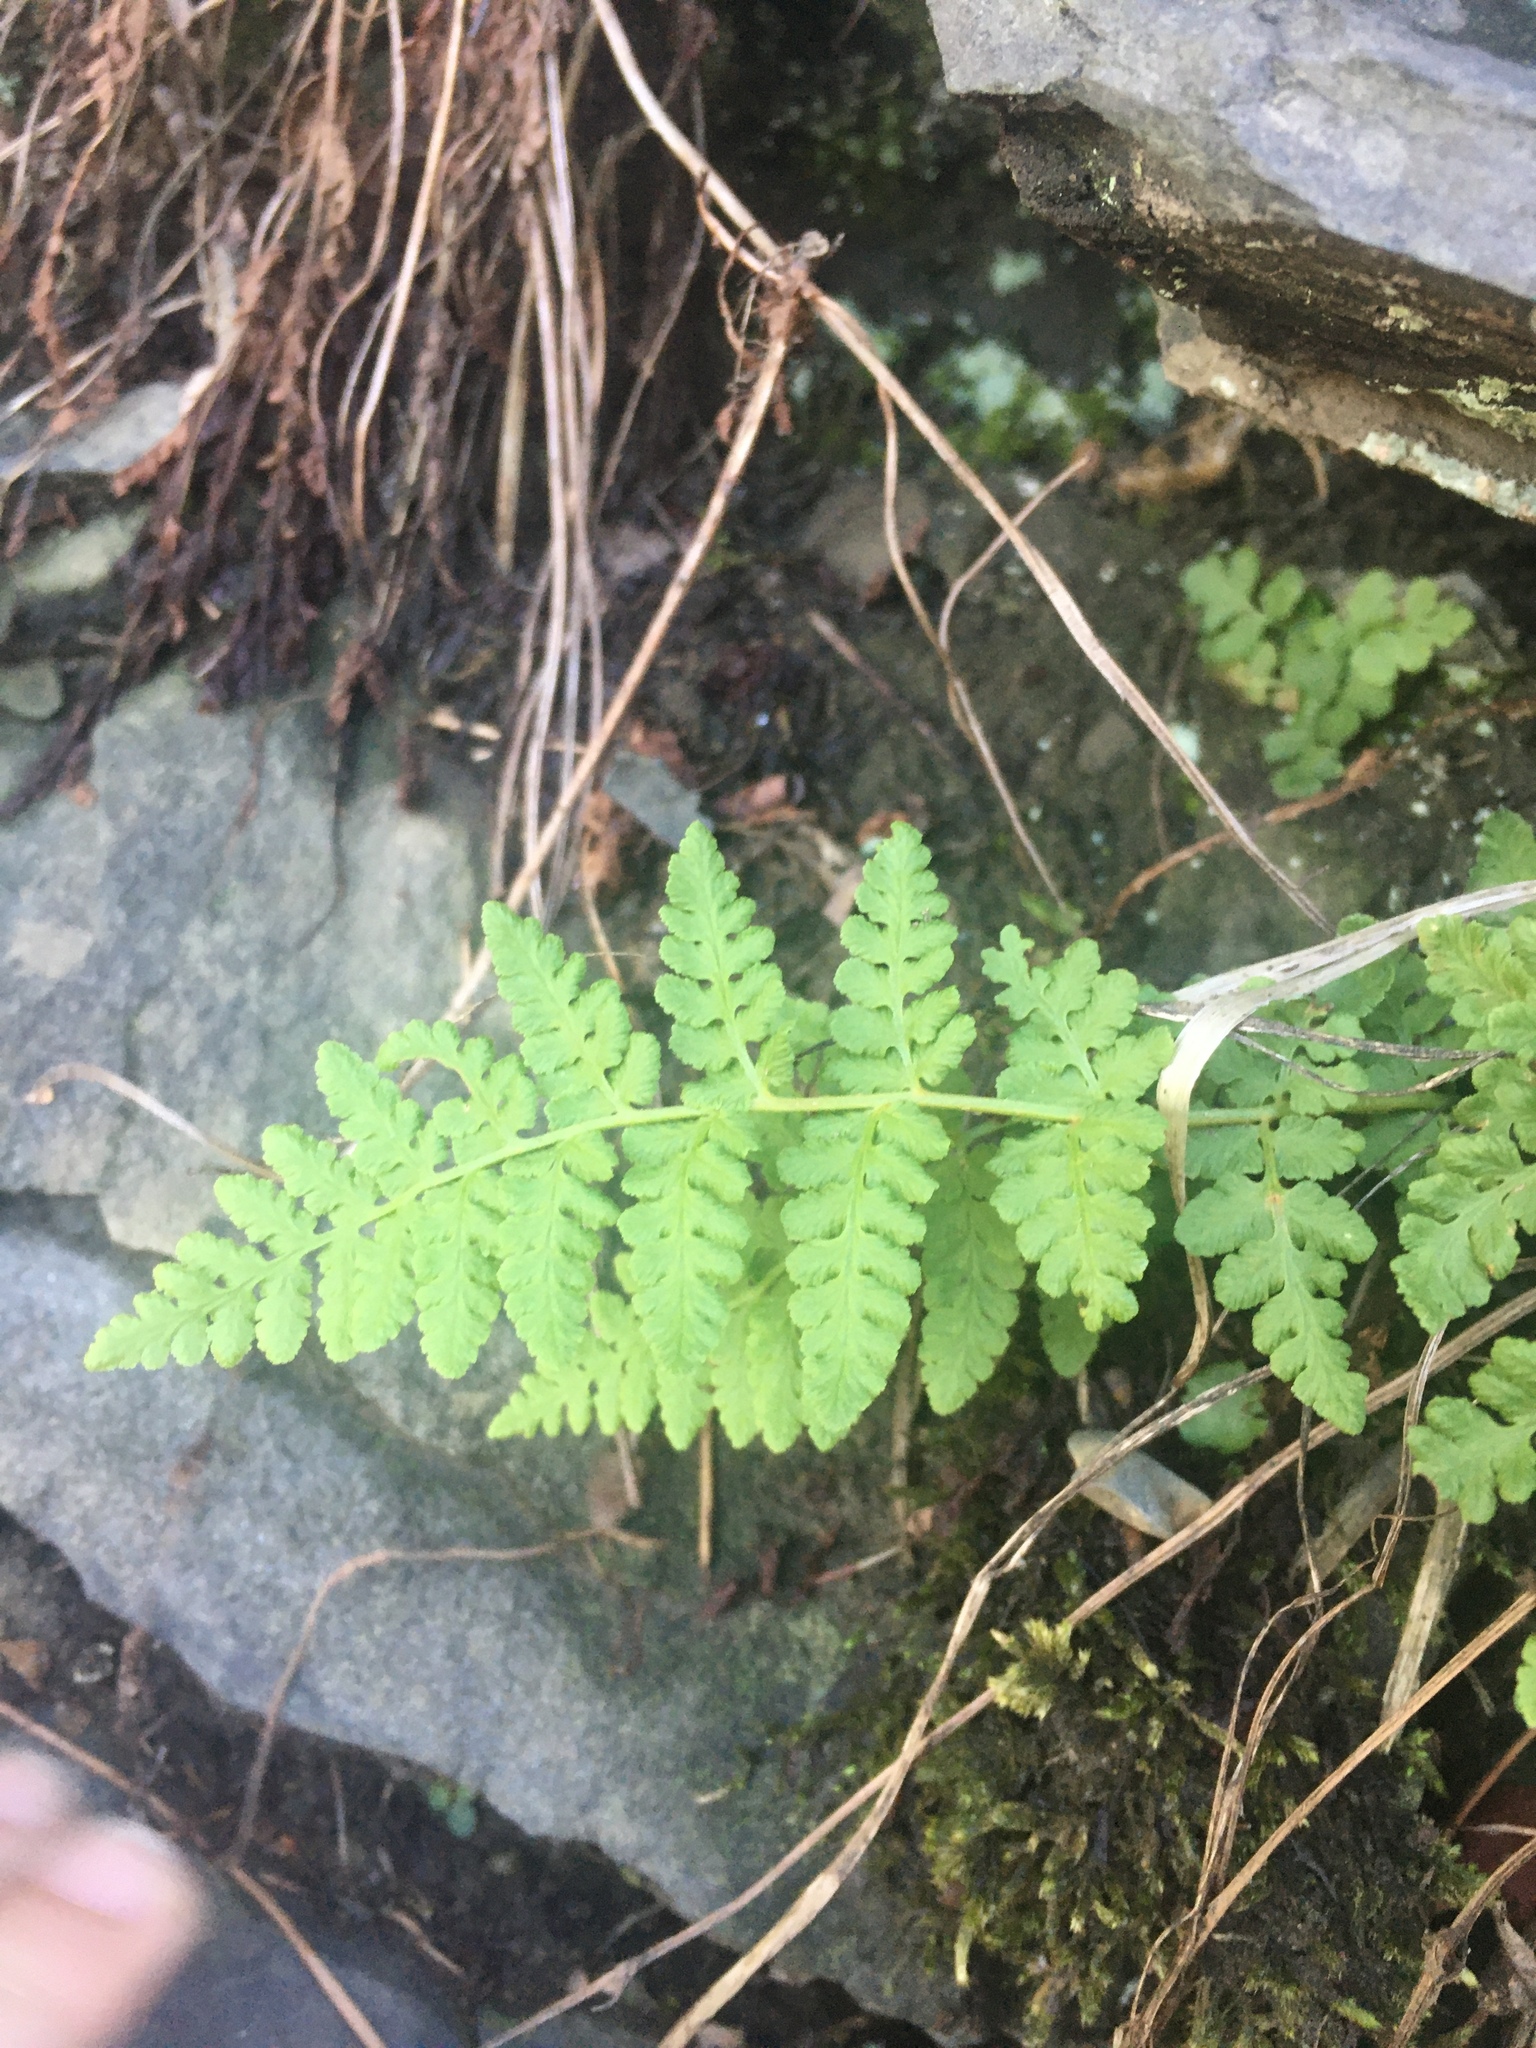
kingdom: Plantae
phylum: Tracheophyta
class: Polypodiopsida
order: Polypodiales
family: Woodsiaceae
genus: Physematium
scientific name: Physematium obtusum
